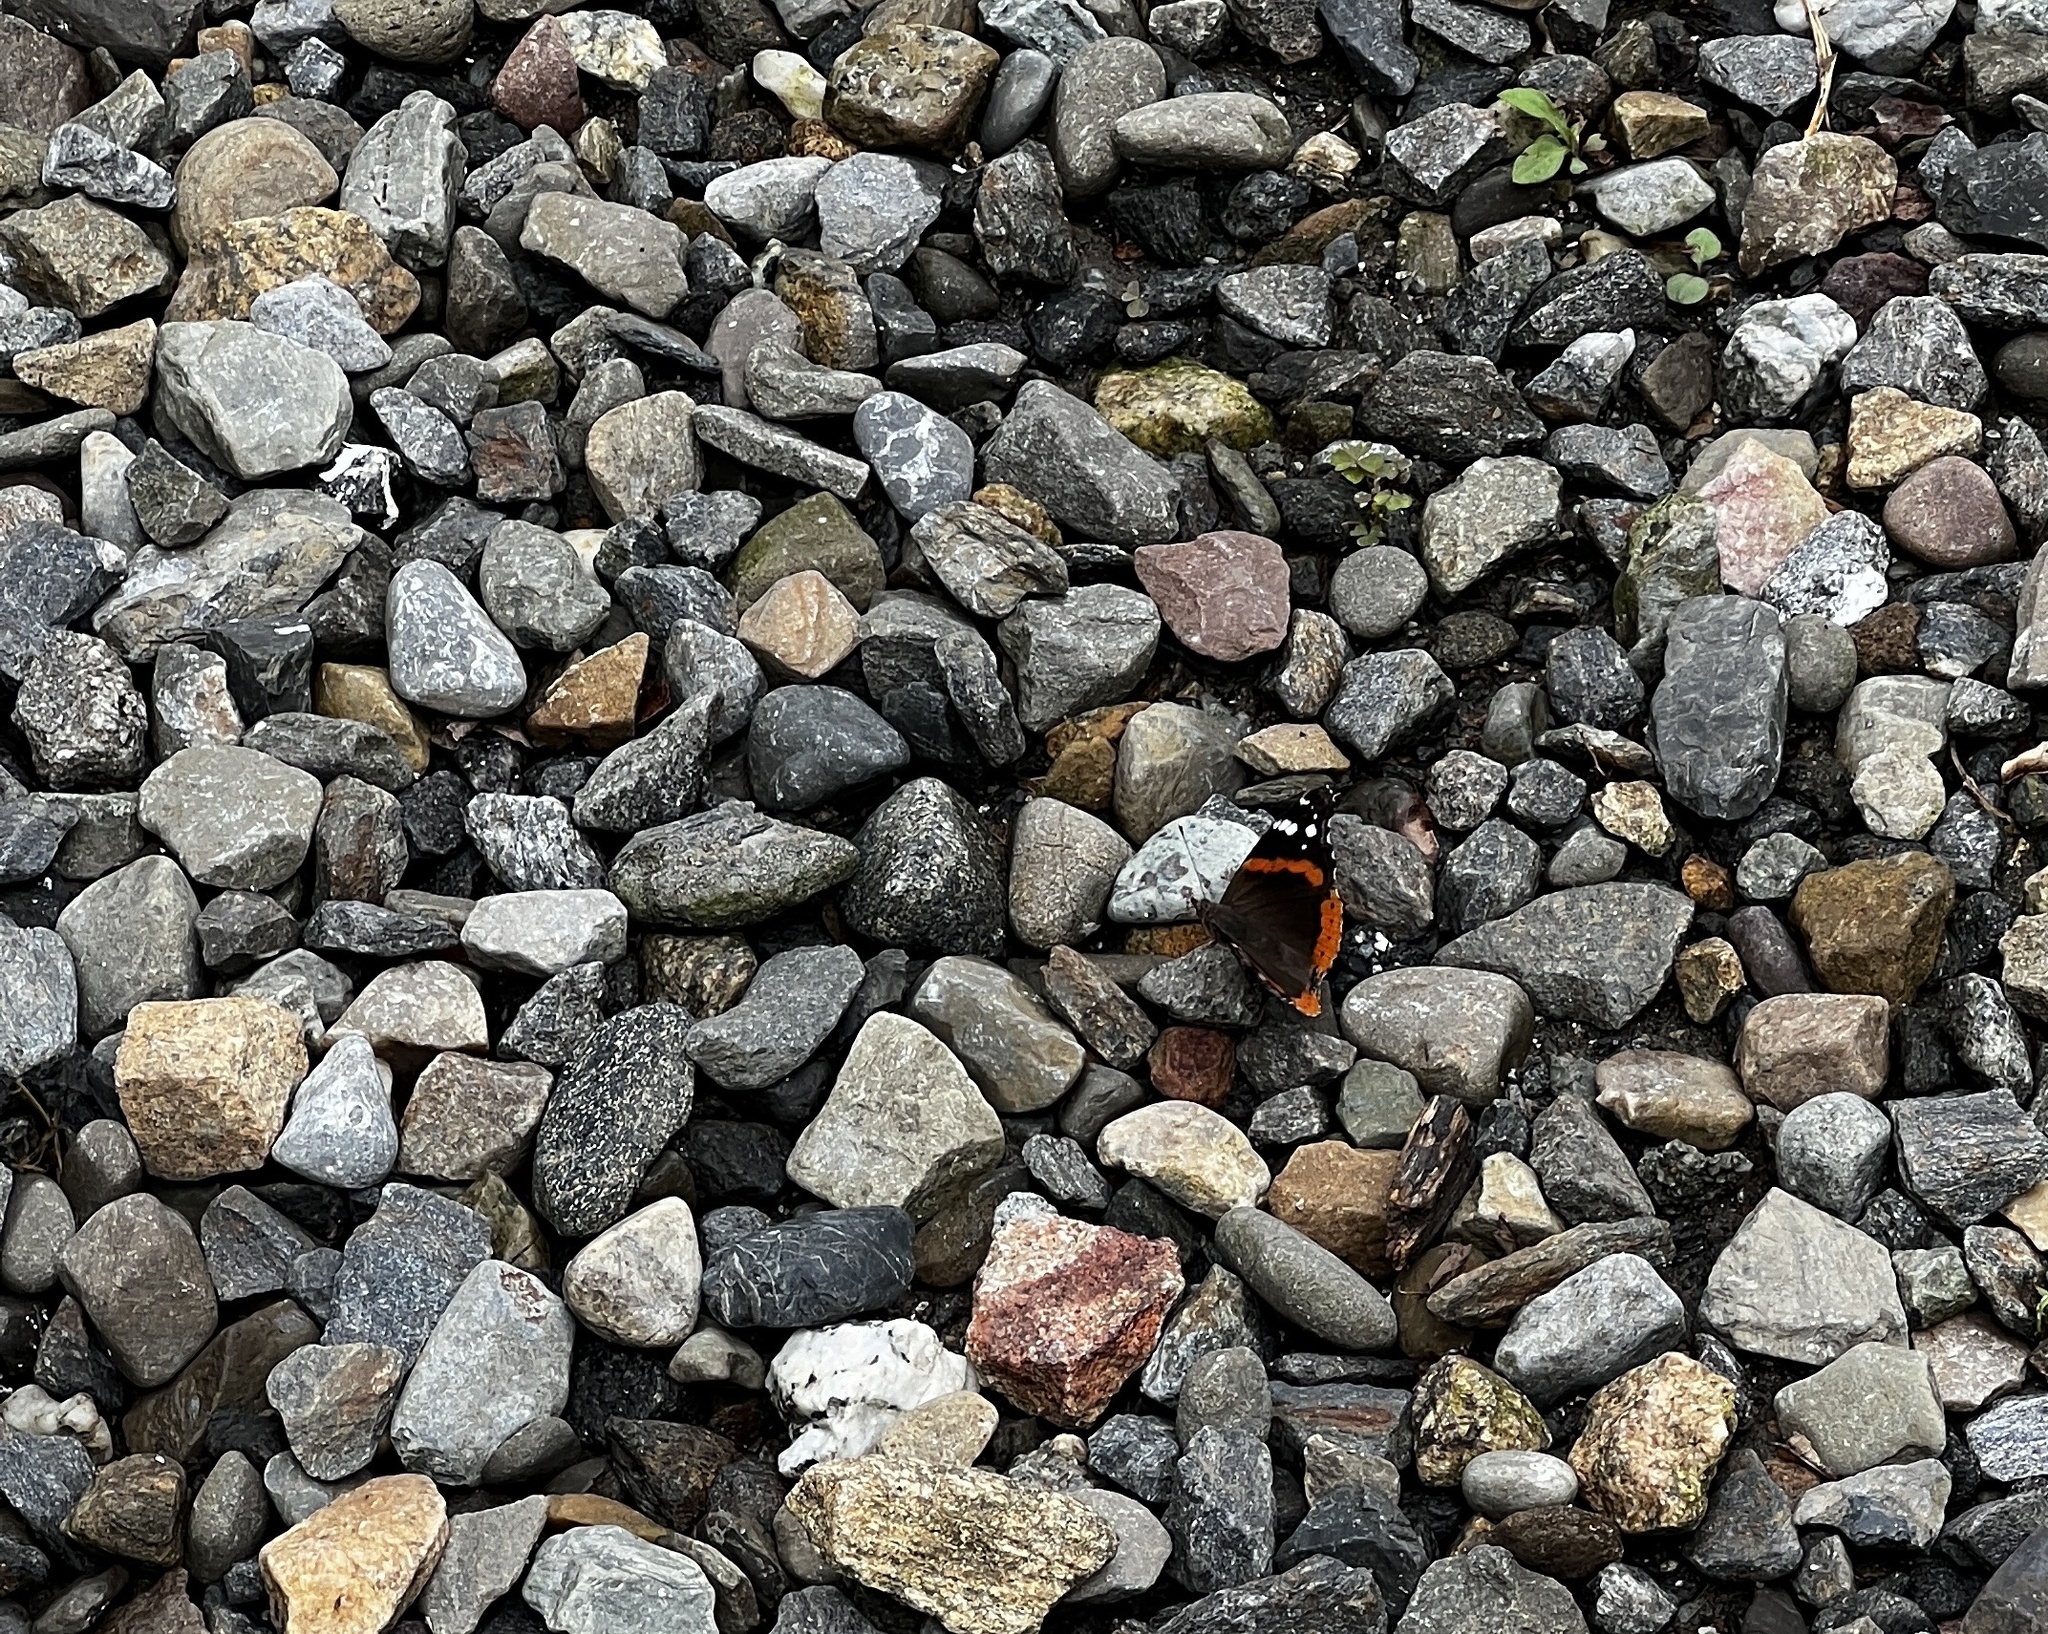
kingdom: Animalia
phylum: Arthropoda
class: Insecta
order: Lepidoptera
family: Nymphalidae
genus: Vanessa
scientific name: Vanessa atalanta
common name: Red admiral
